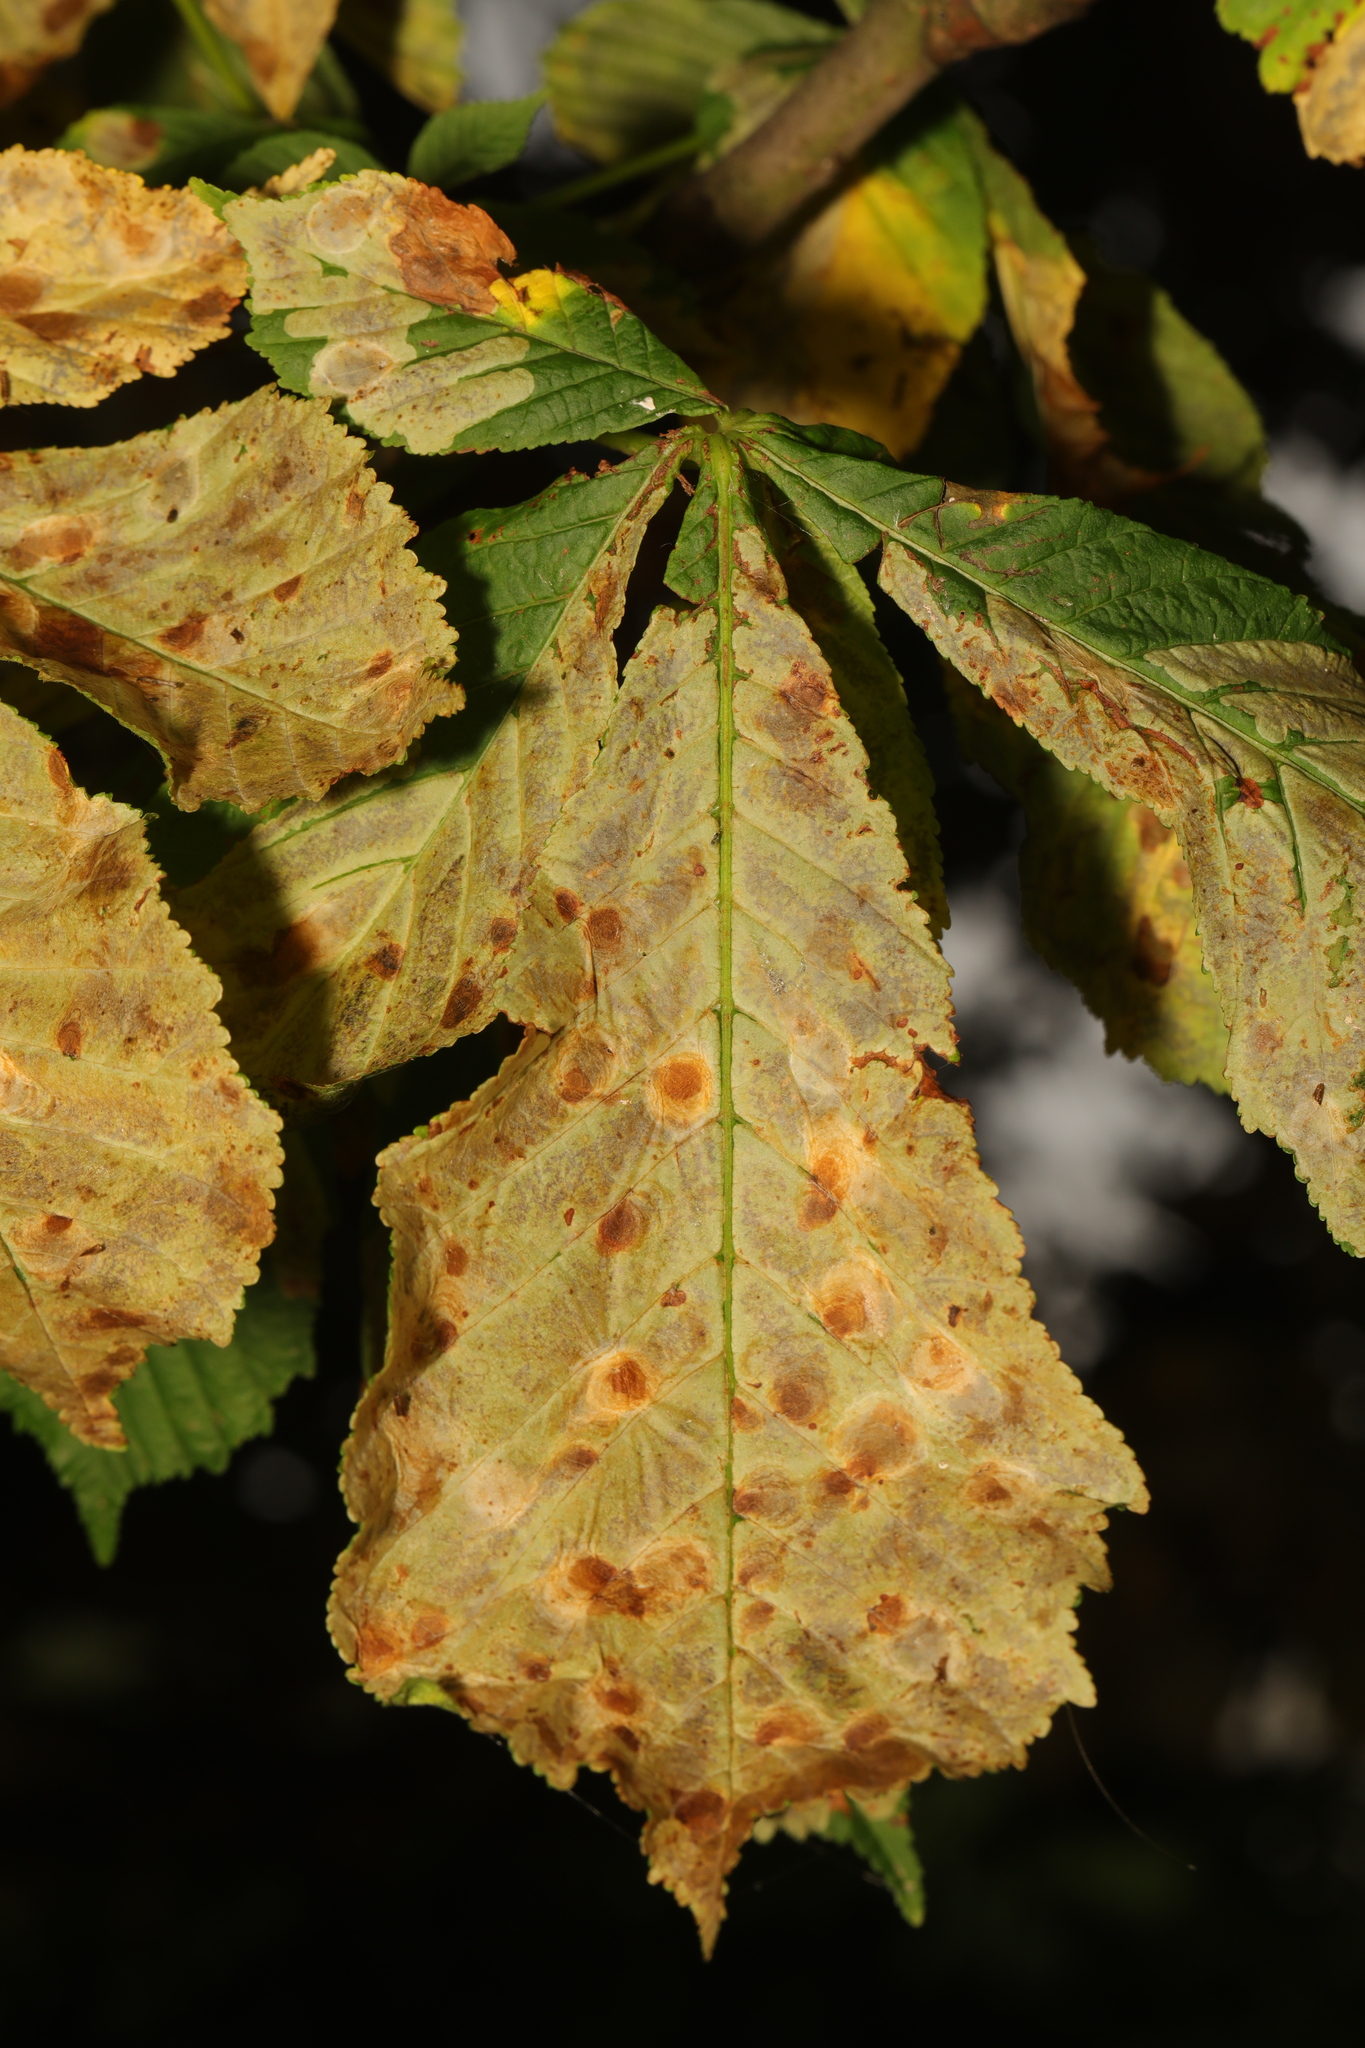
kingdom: Animalia
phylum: Arthropoda
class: Insecta
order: Lepidoptera
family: Gracillariidae
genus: Cameraria
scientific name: Cameraria ohridella
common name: Horse-chestnut leaf-miner
